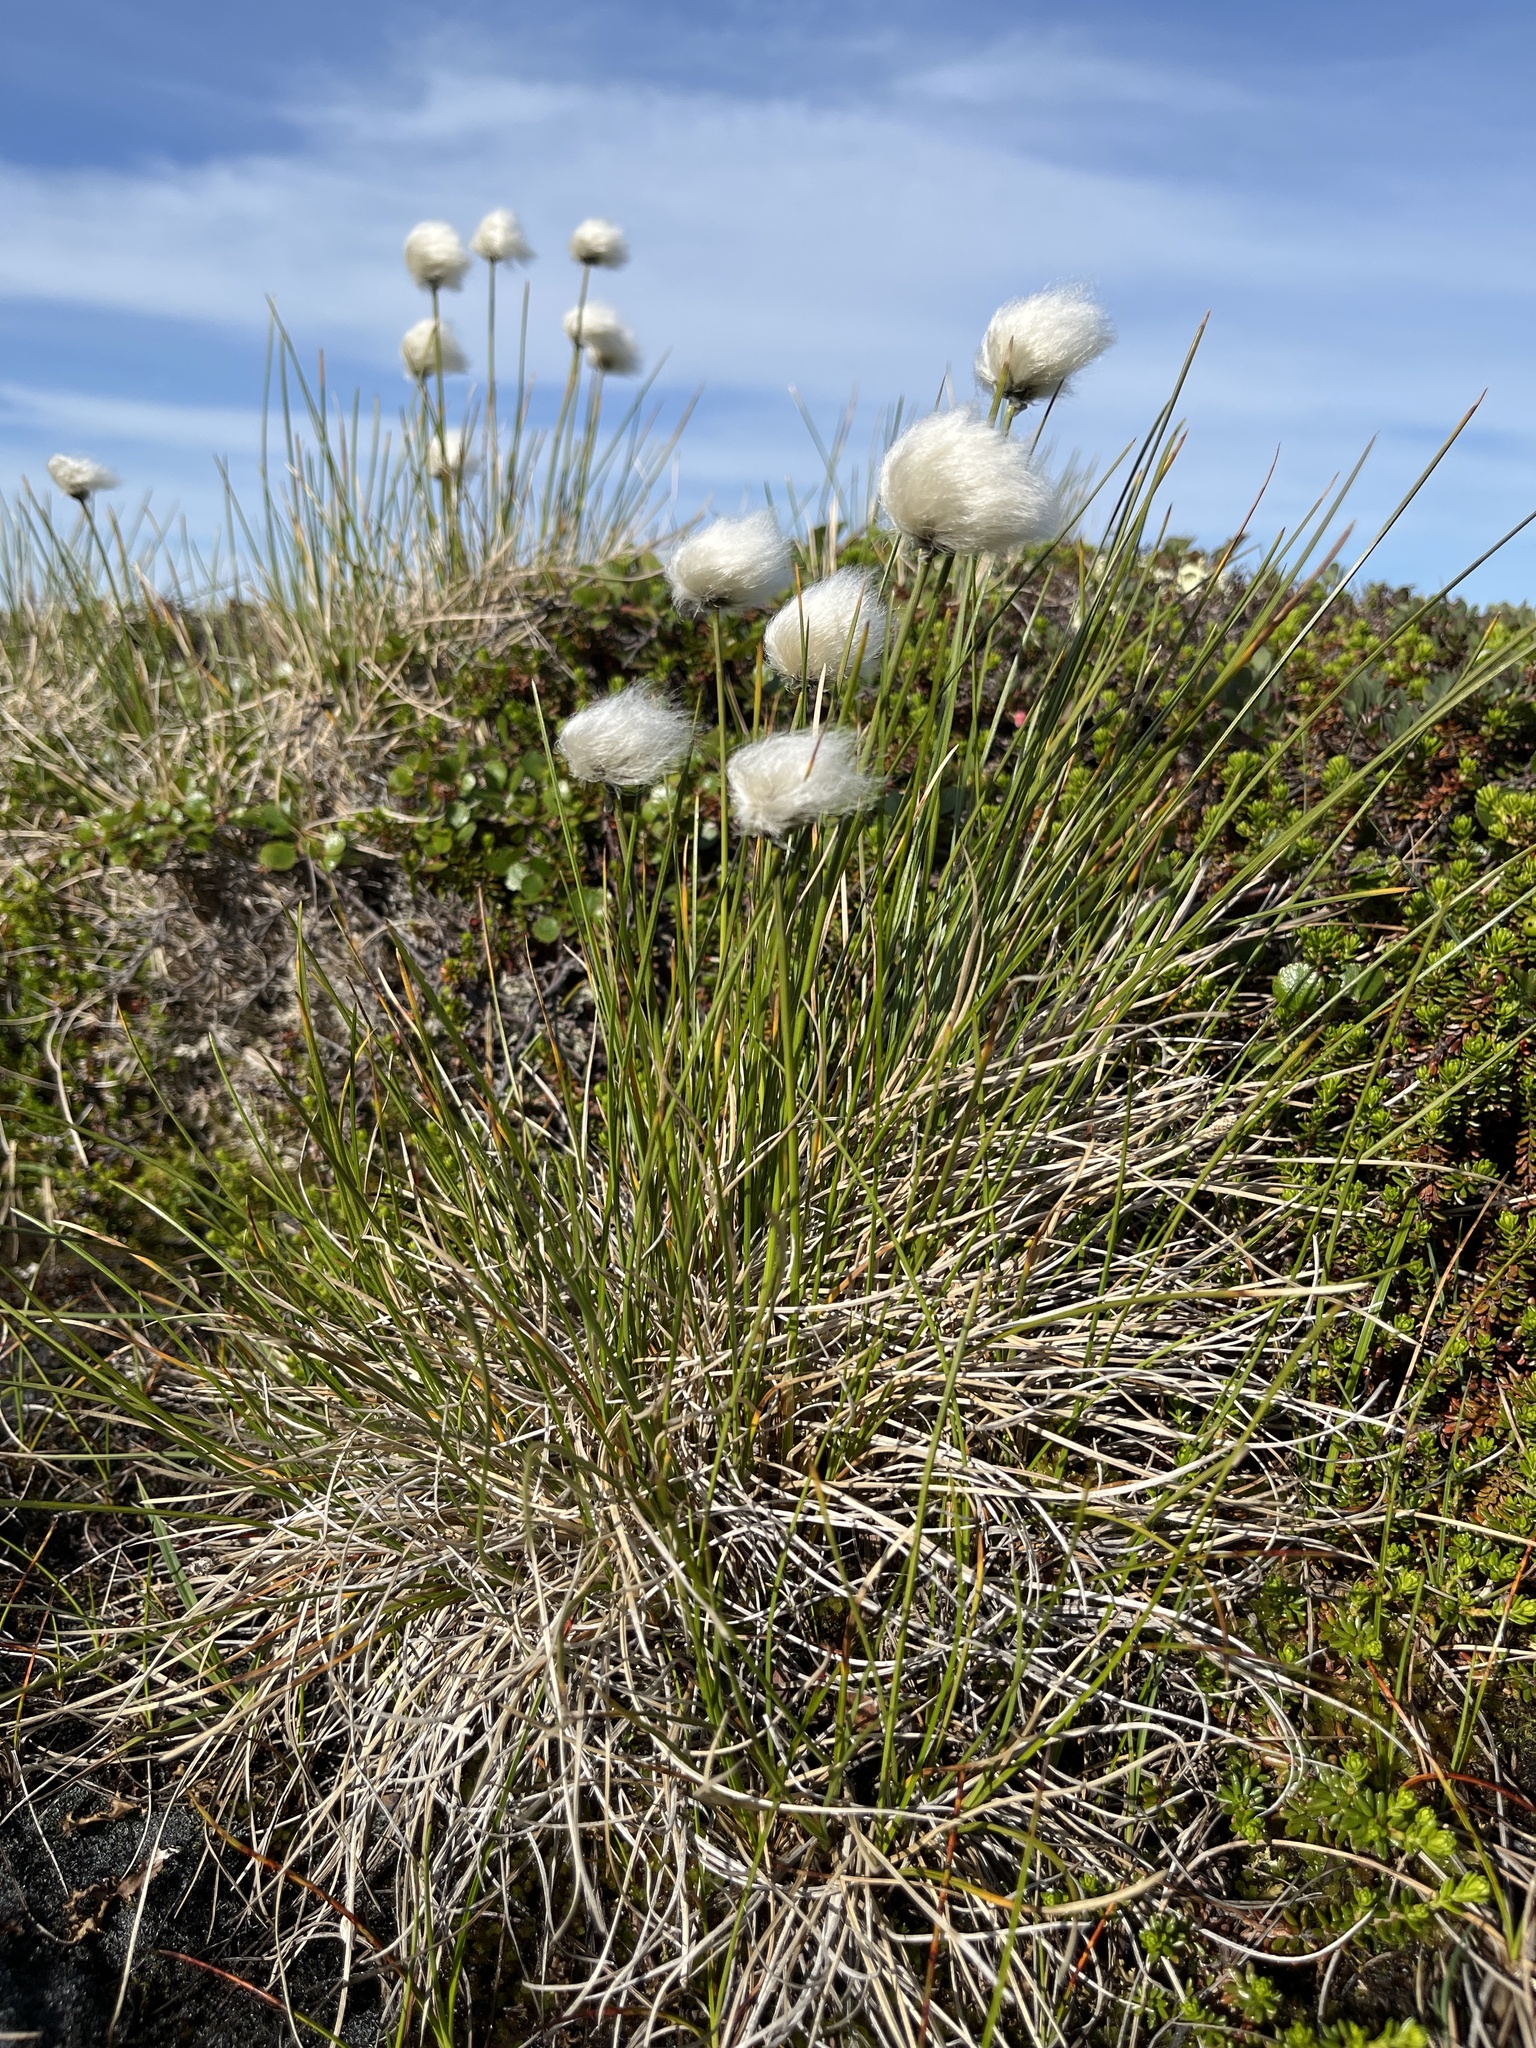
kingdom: Plantae
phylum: Tracheophyta
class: Liliopsida
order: Poales
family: Cyperaceae
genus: Eriophorum
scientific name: Eriophorum vaginatum
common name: Hare's-tail cottongrass
